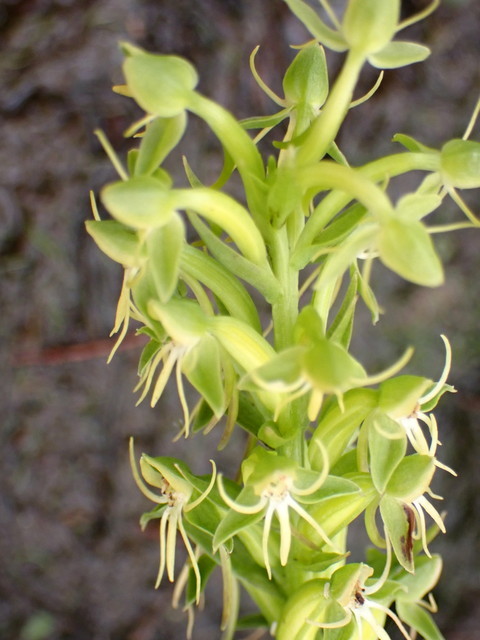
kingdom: Plantae
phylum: Tracheophyta
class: Liliopsida
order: Asparagales
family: Orchidaceae
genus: Habenaria
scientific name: Habenaria repens
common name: Water orchid
